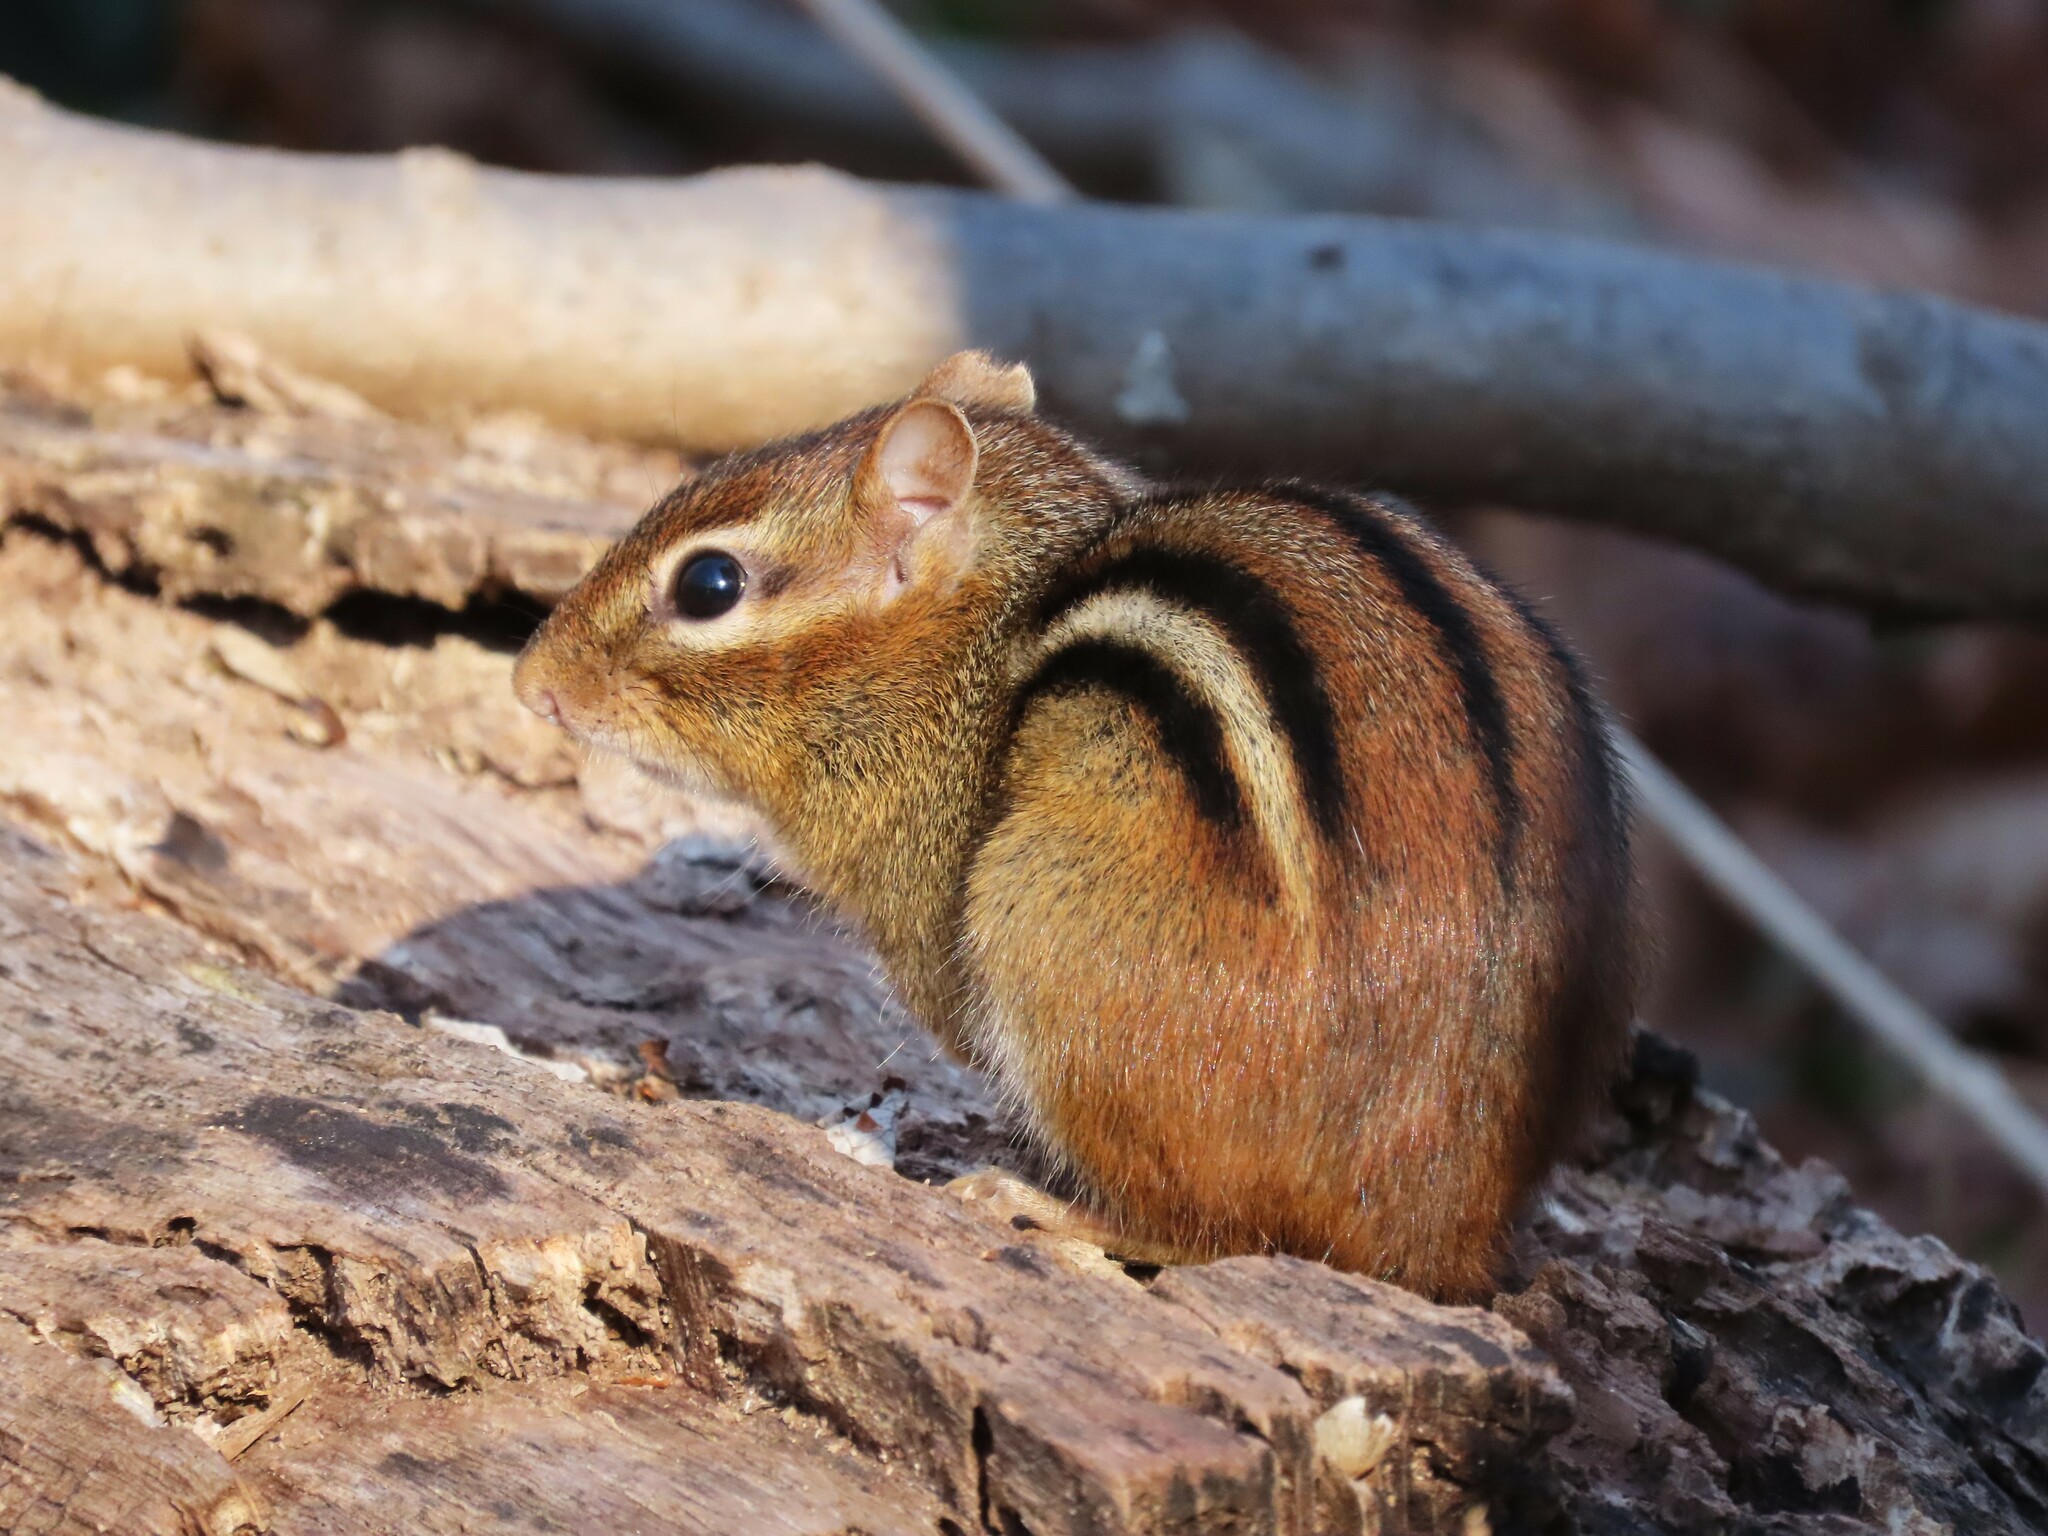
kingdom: Animalia
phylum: Chordata
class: Mammalia
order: Rodentia
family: Sciuridae
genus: Tamias
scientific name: Tamias striatus
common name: Eastern chipmunk
